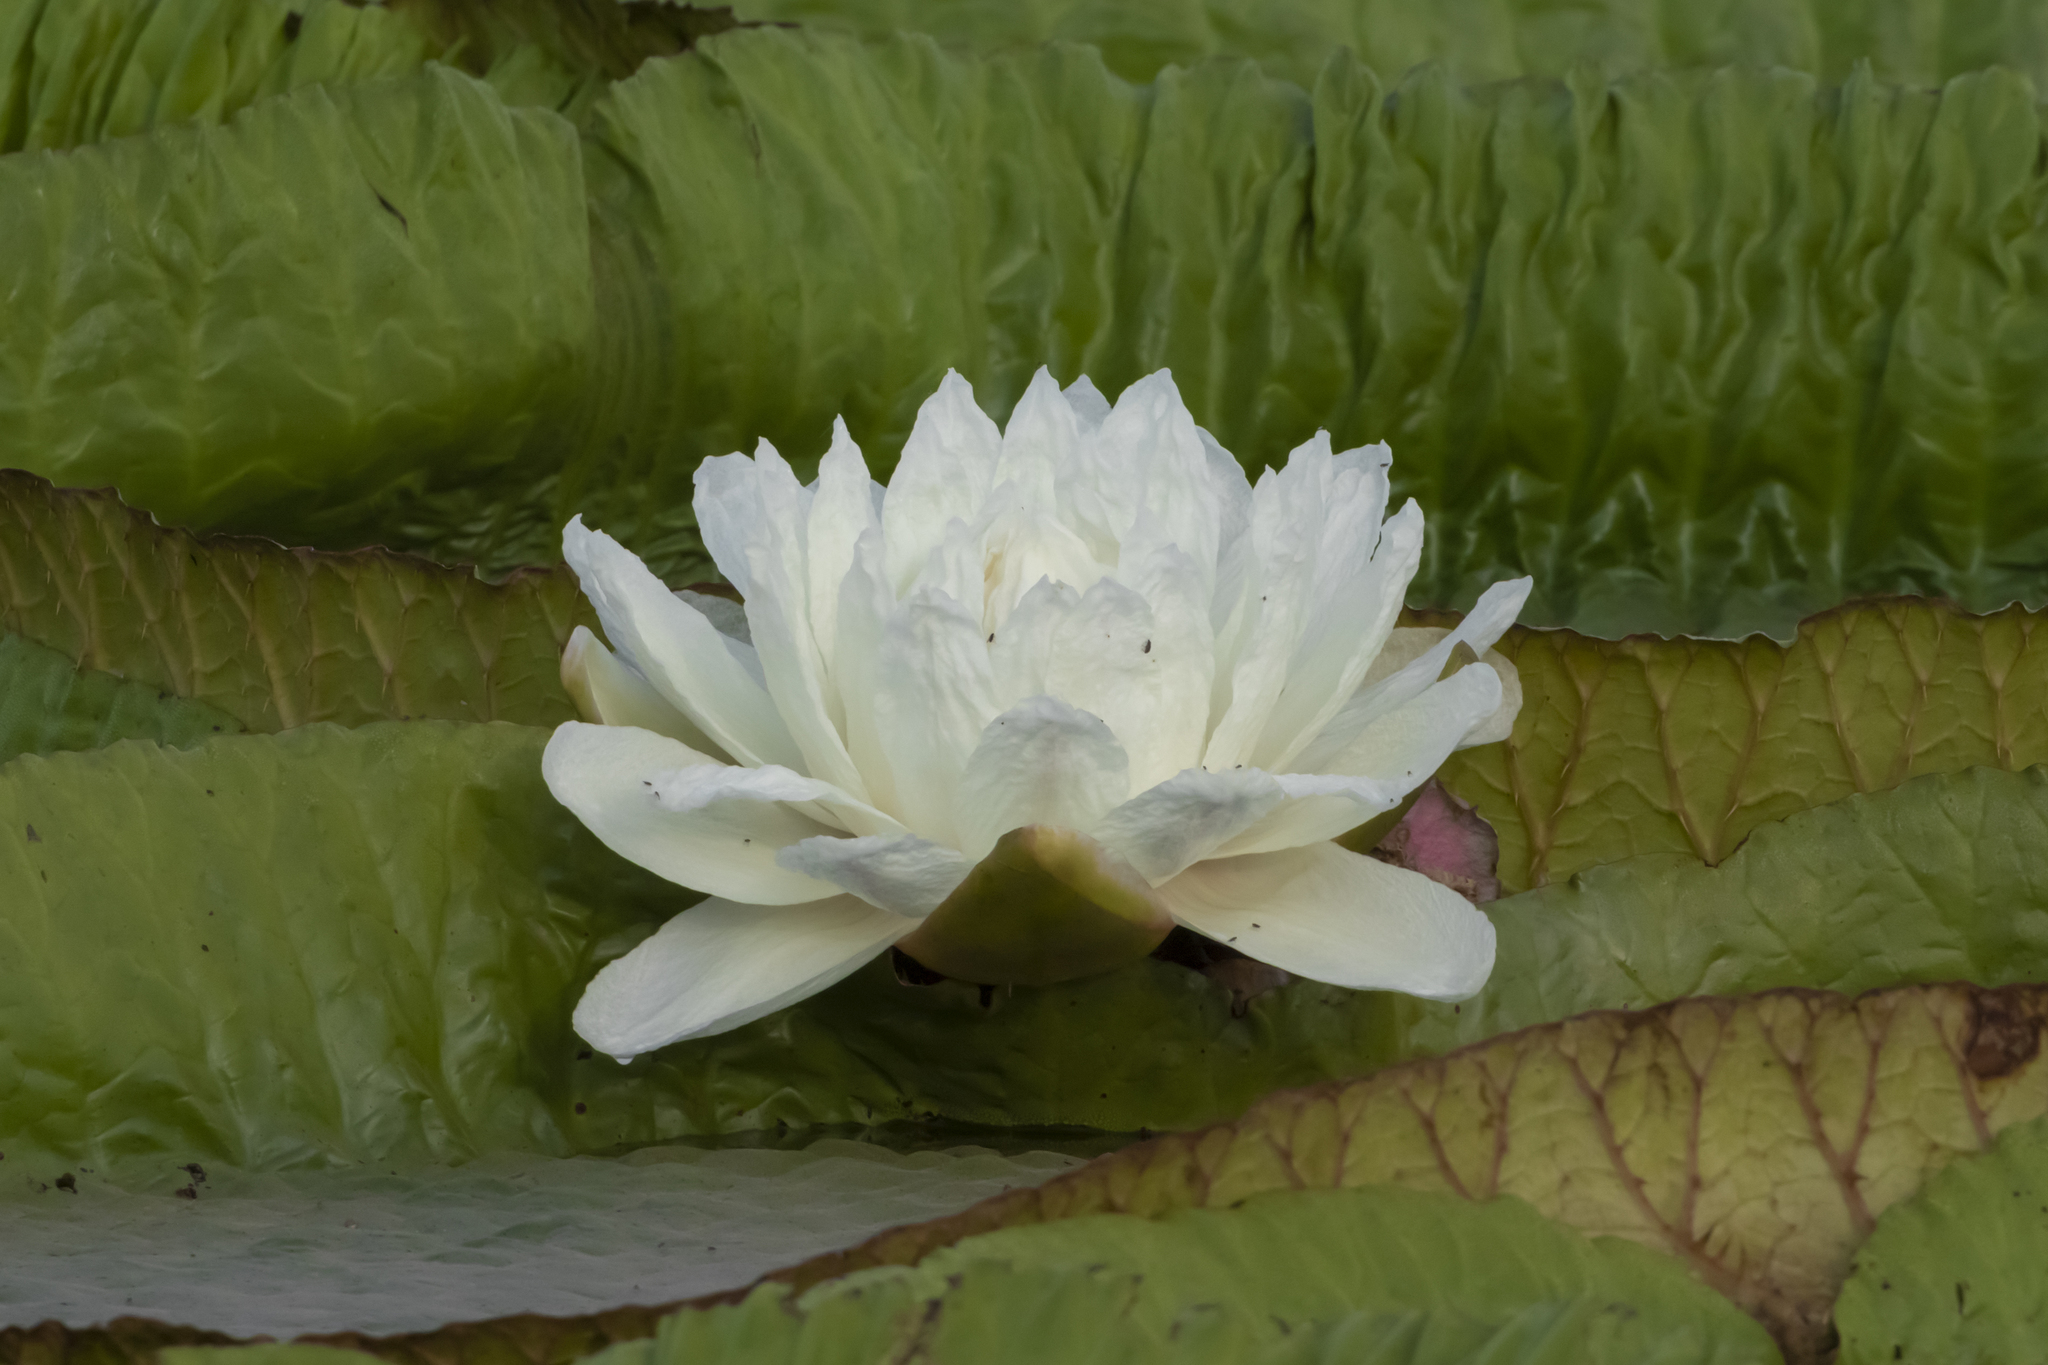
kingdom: Plantae
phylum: Tracheophyta
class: Magnoliopsida
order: Nymphaeales
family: Nymphaeaceae
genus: Victoria
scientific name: Victoria cruziana
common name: Santa cruz water-lily
